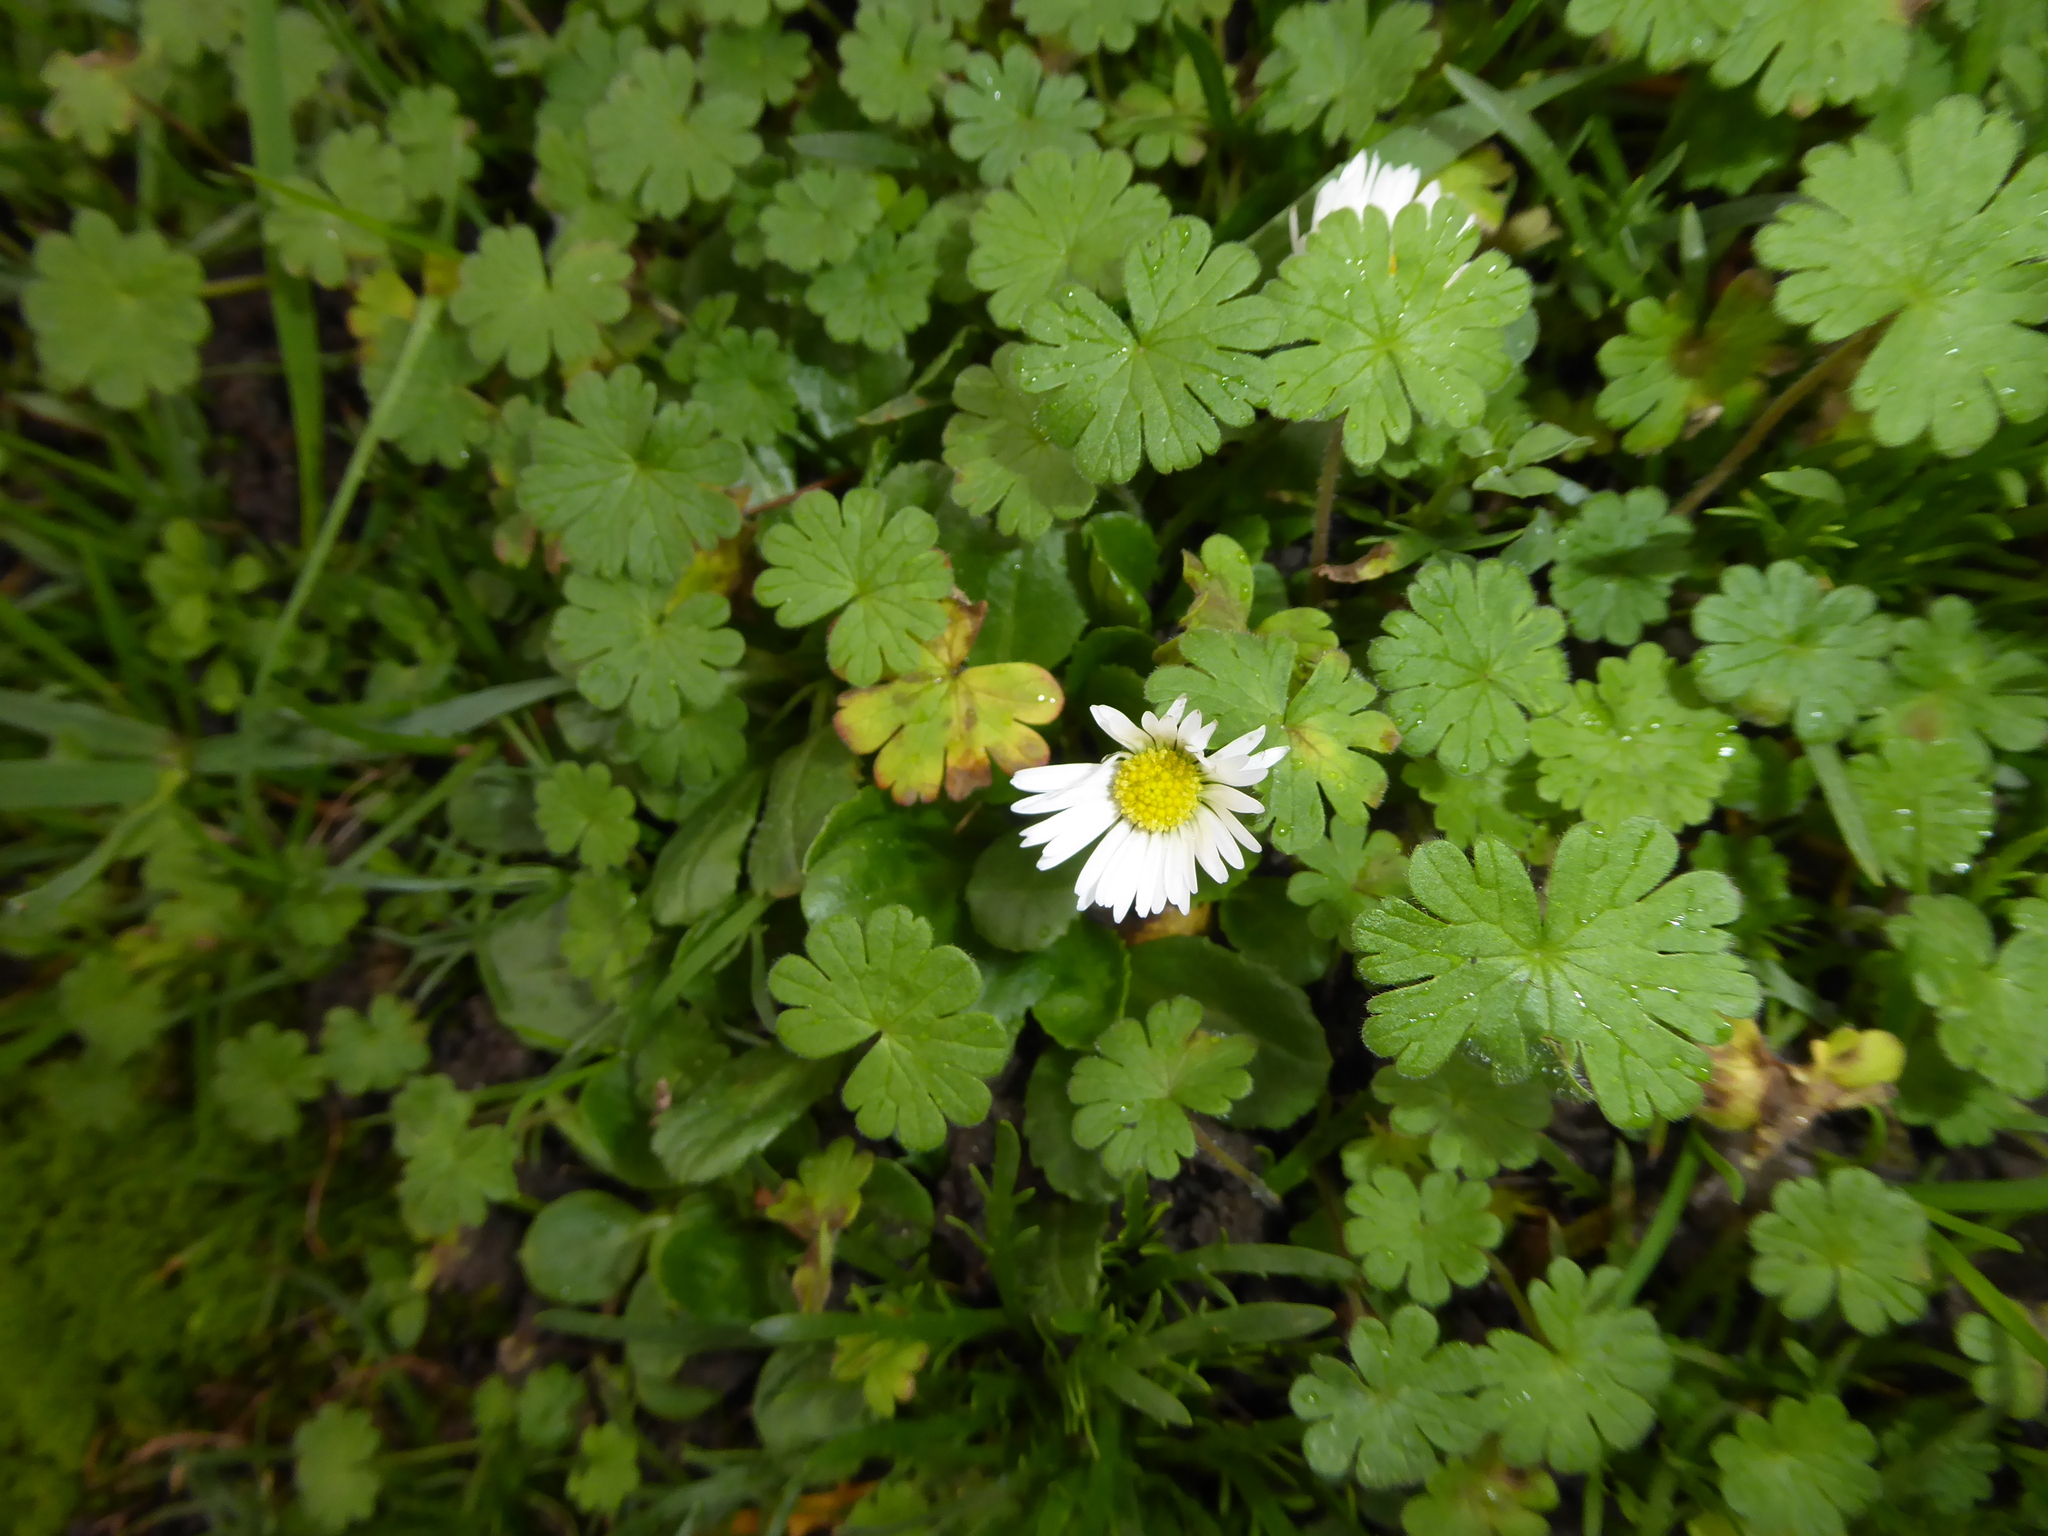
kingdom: Plantae
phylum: Tracheophyta
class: Magnoliopsida
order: Asterales
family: Asteraceae
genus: Bellis
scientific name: Bellis perennis
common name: Lawndaisy
